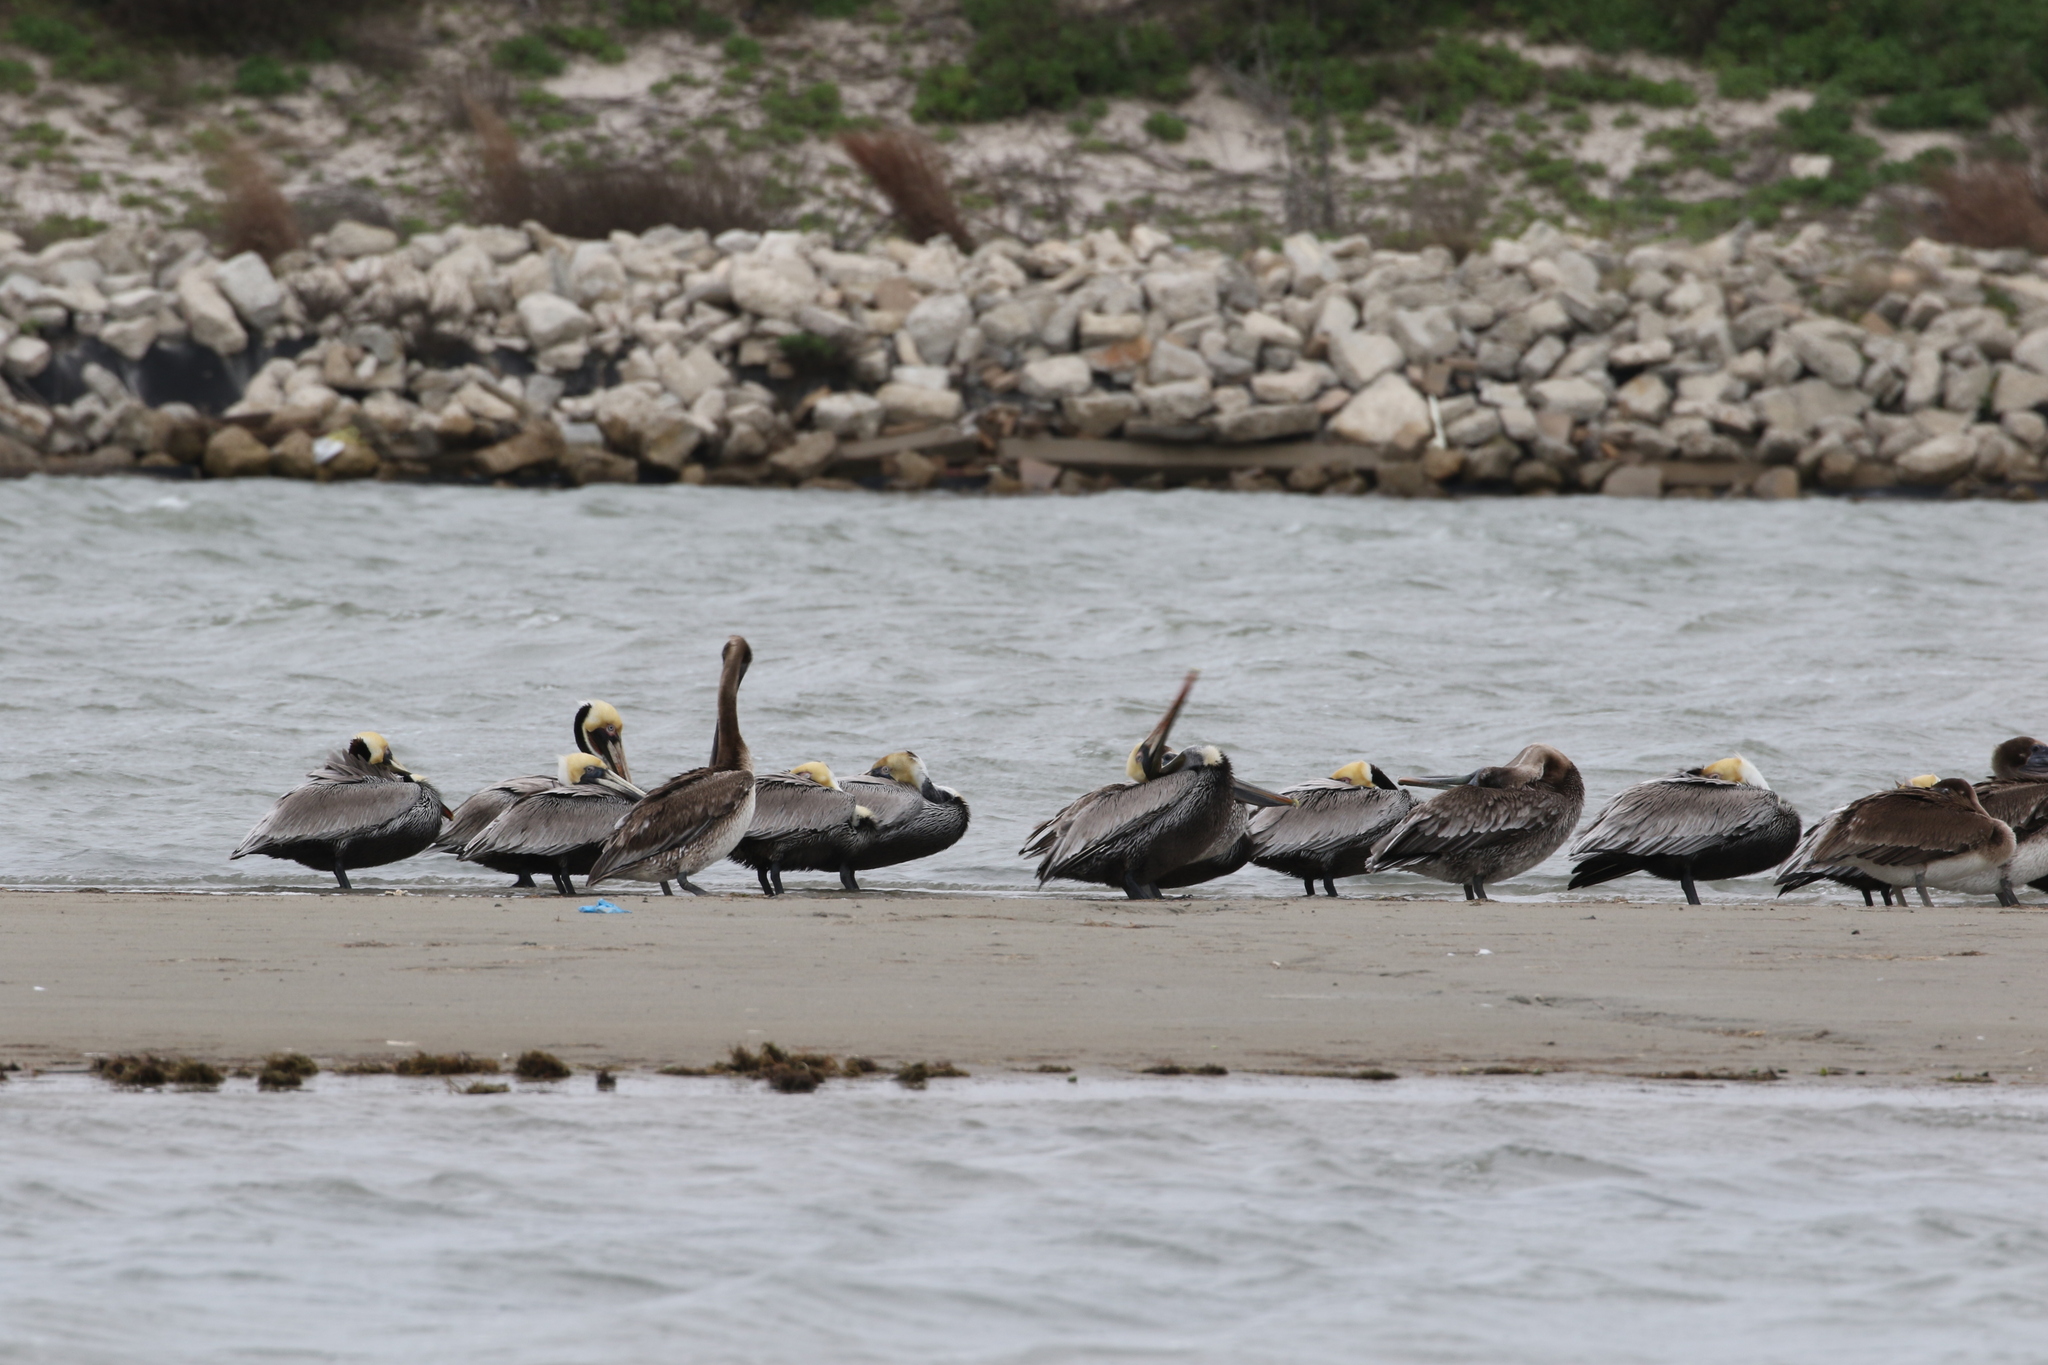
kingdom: Animalia
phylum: Chordata
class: Aves
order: Pelecaniformes
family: Pelecanidae
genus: Pelecanus
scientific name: Pelecanus occidentalis
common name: Brown pelican
